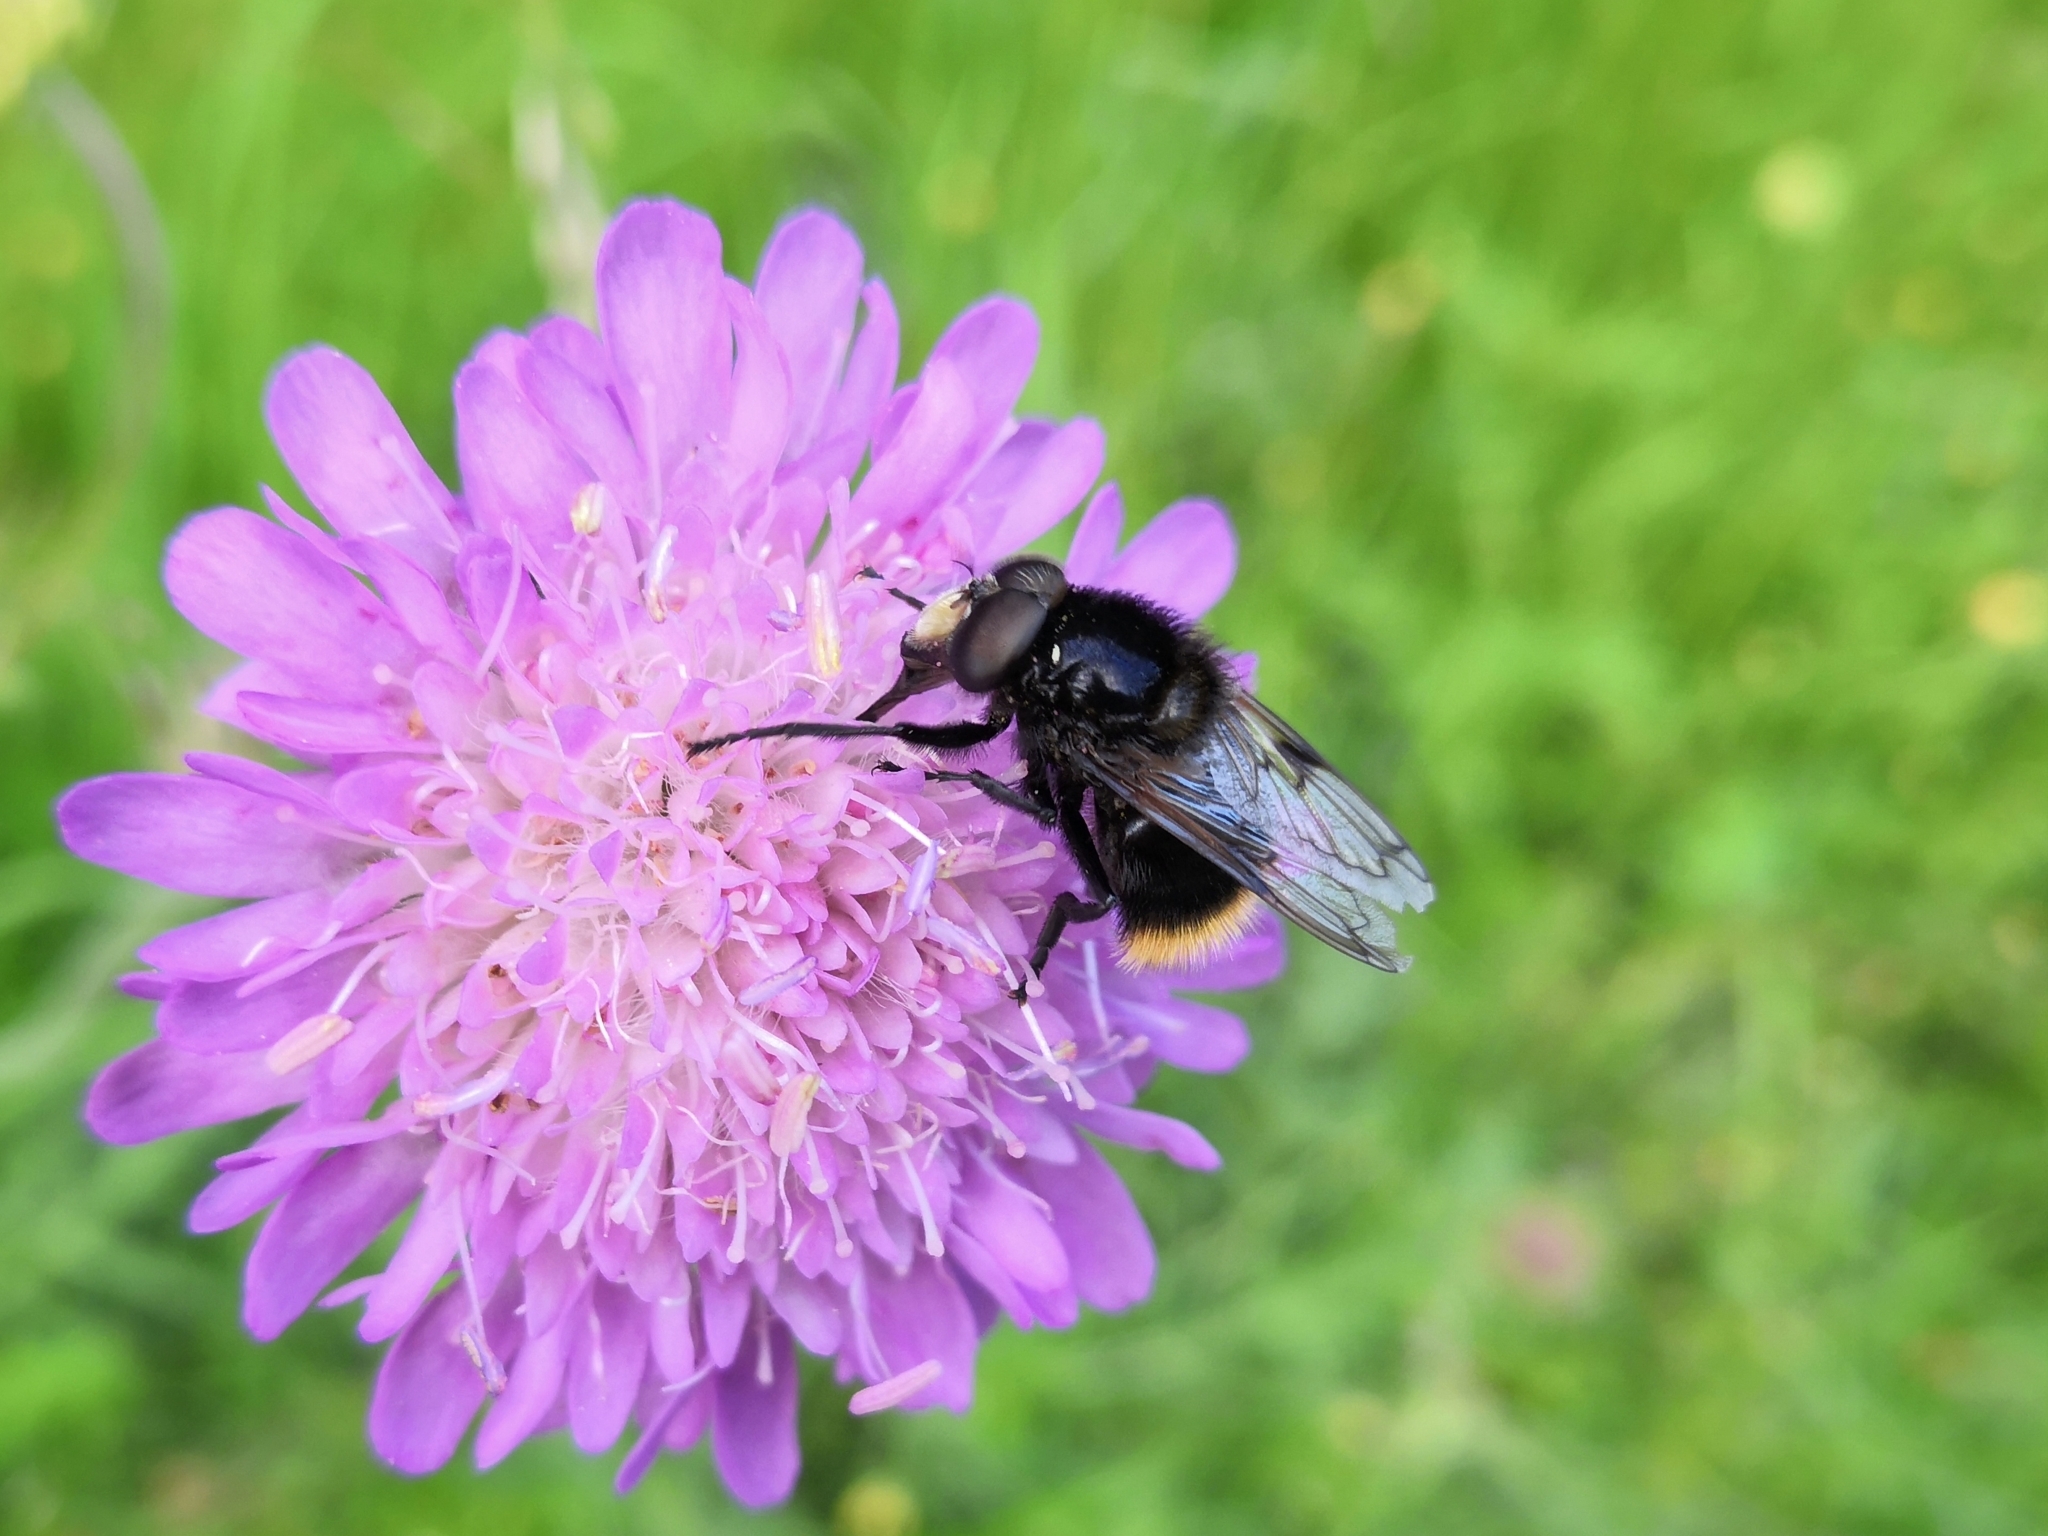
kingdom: Animalia
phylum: Arthropoda
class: Insecta
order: Diptera
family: Syrphidae
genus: Volucella
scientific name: Volucella bombylans
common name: Bumble bee hover fly
